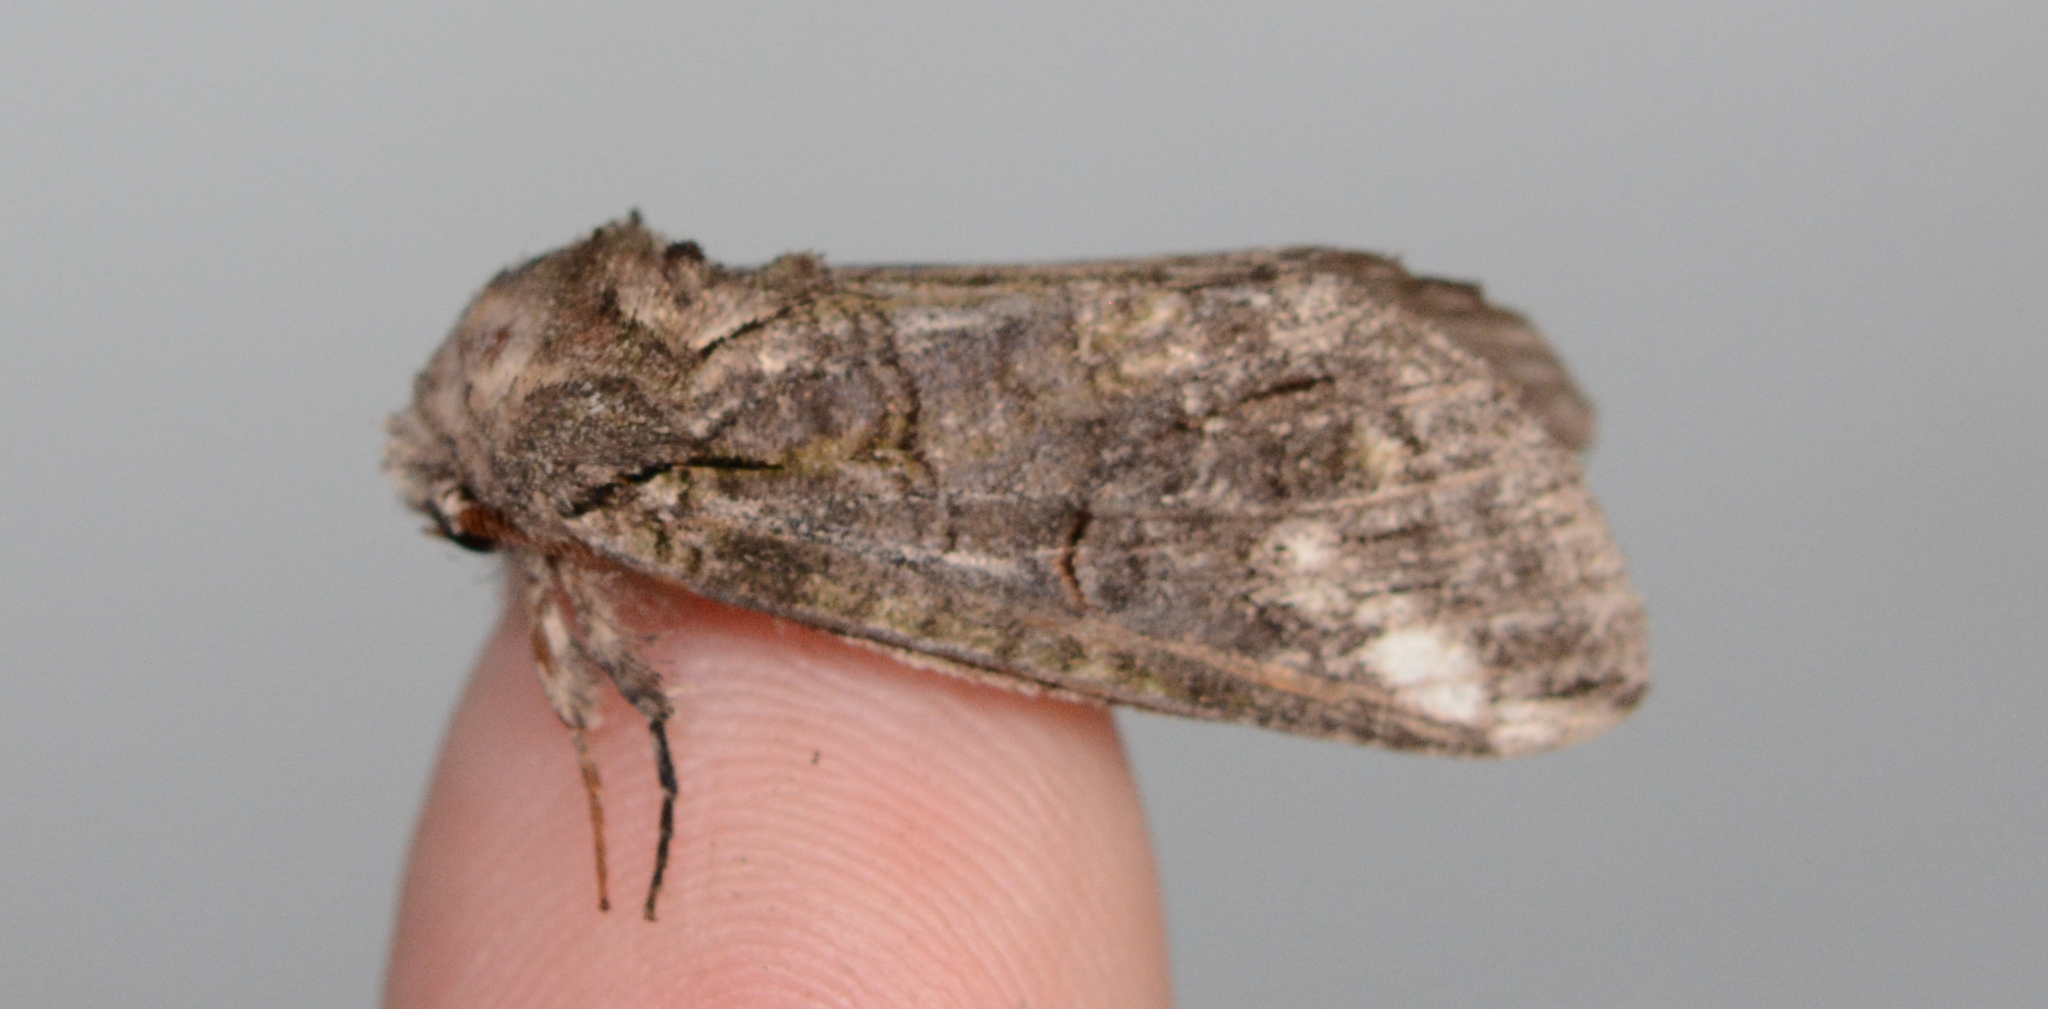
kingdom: Animalia
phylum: Arthropoda
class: Insecta
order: Lepidoptera
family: Notodontidae
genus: Heterocampa
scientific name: Heterocampa obliqua
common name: Oblique heterocampa
